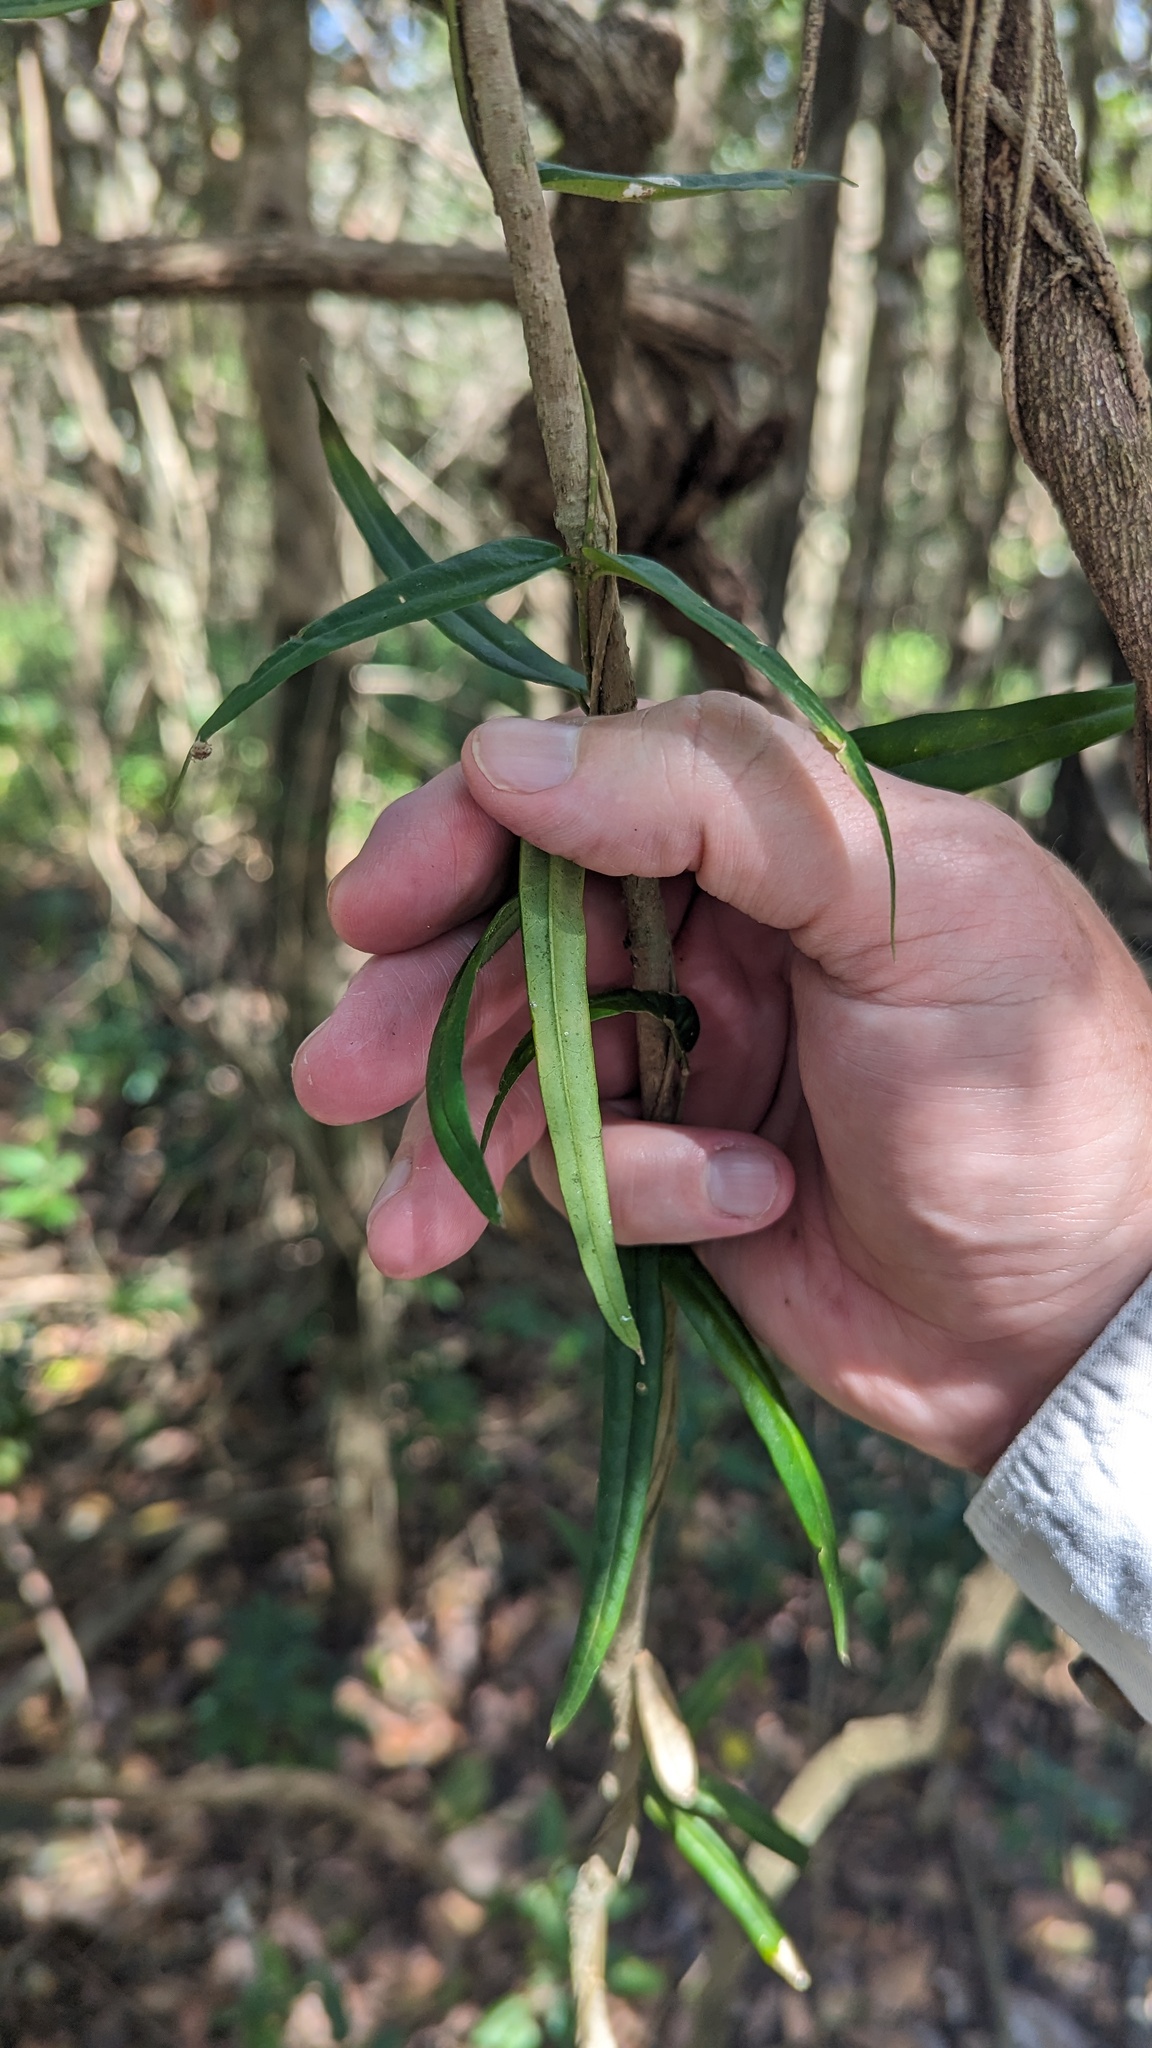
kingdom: Plantae
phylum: Tracheophyta
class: Magnoliopsida
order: Gentianales
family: Apocynaceae
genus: Parsonsia
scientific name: Parsonsia paulforsteri
